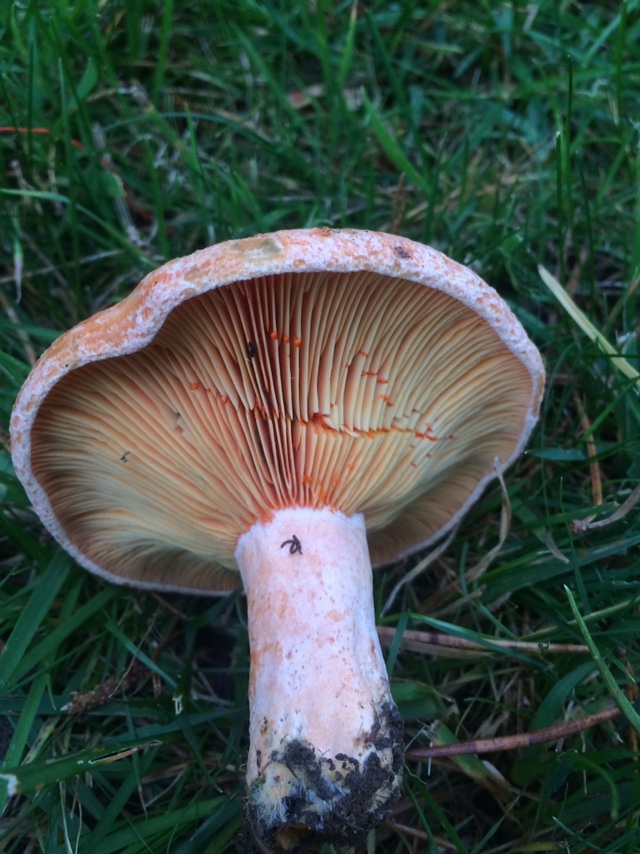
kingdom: Fungi
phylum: Basidiomycota
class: Agaricomycetes
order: Russulales
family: Russulaceae
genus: Lactarius
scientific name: Lactarius deliciosus
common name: Saffron milk-cap
